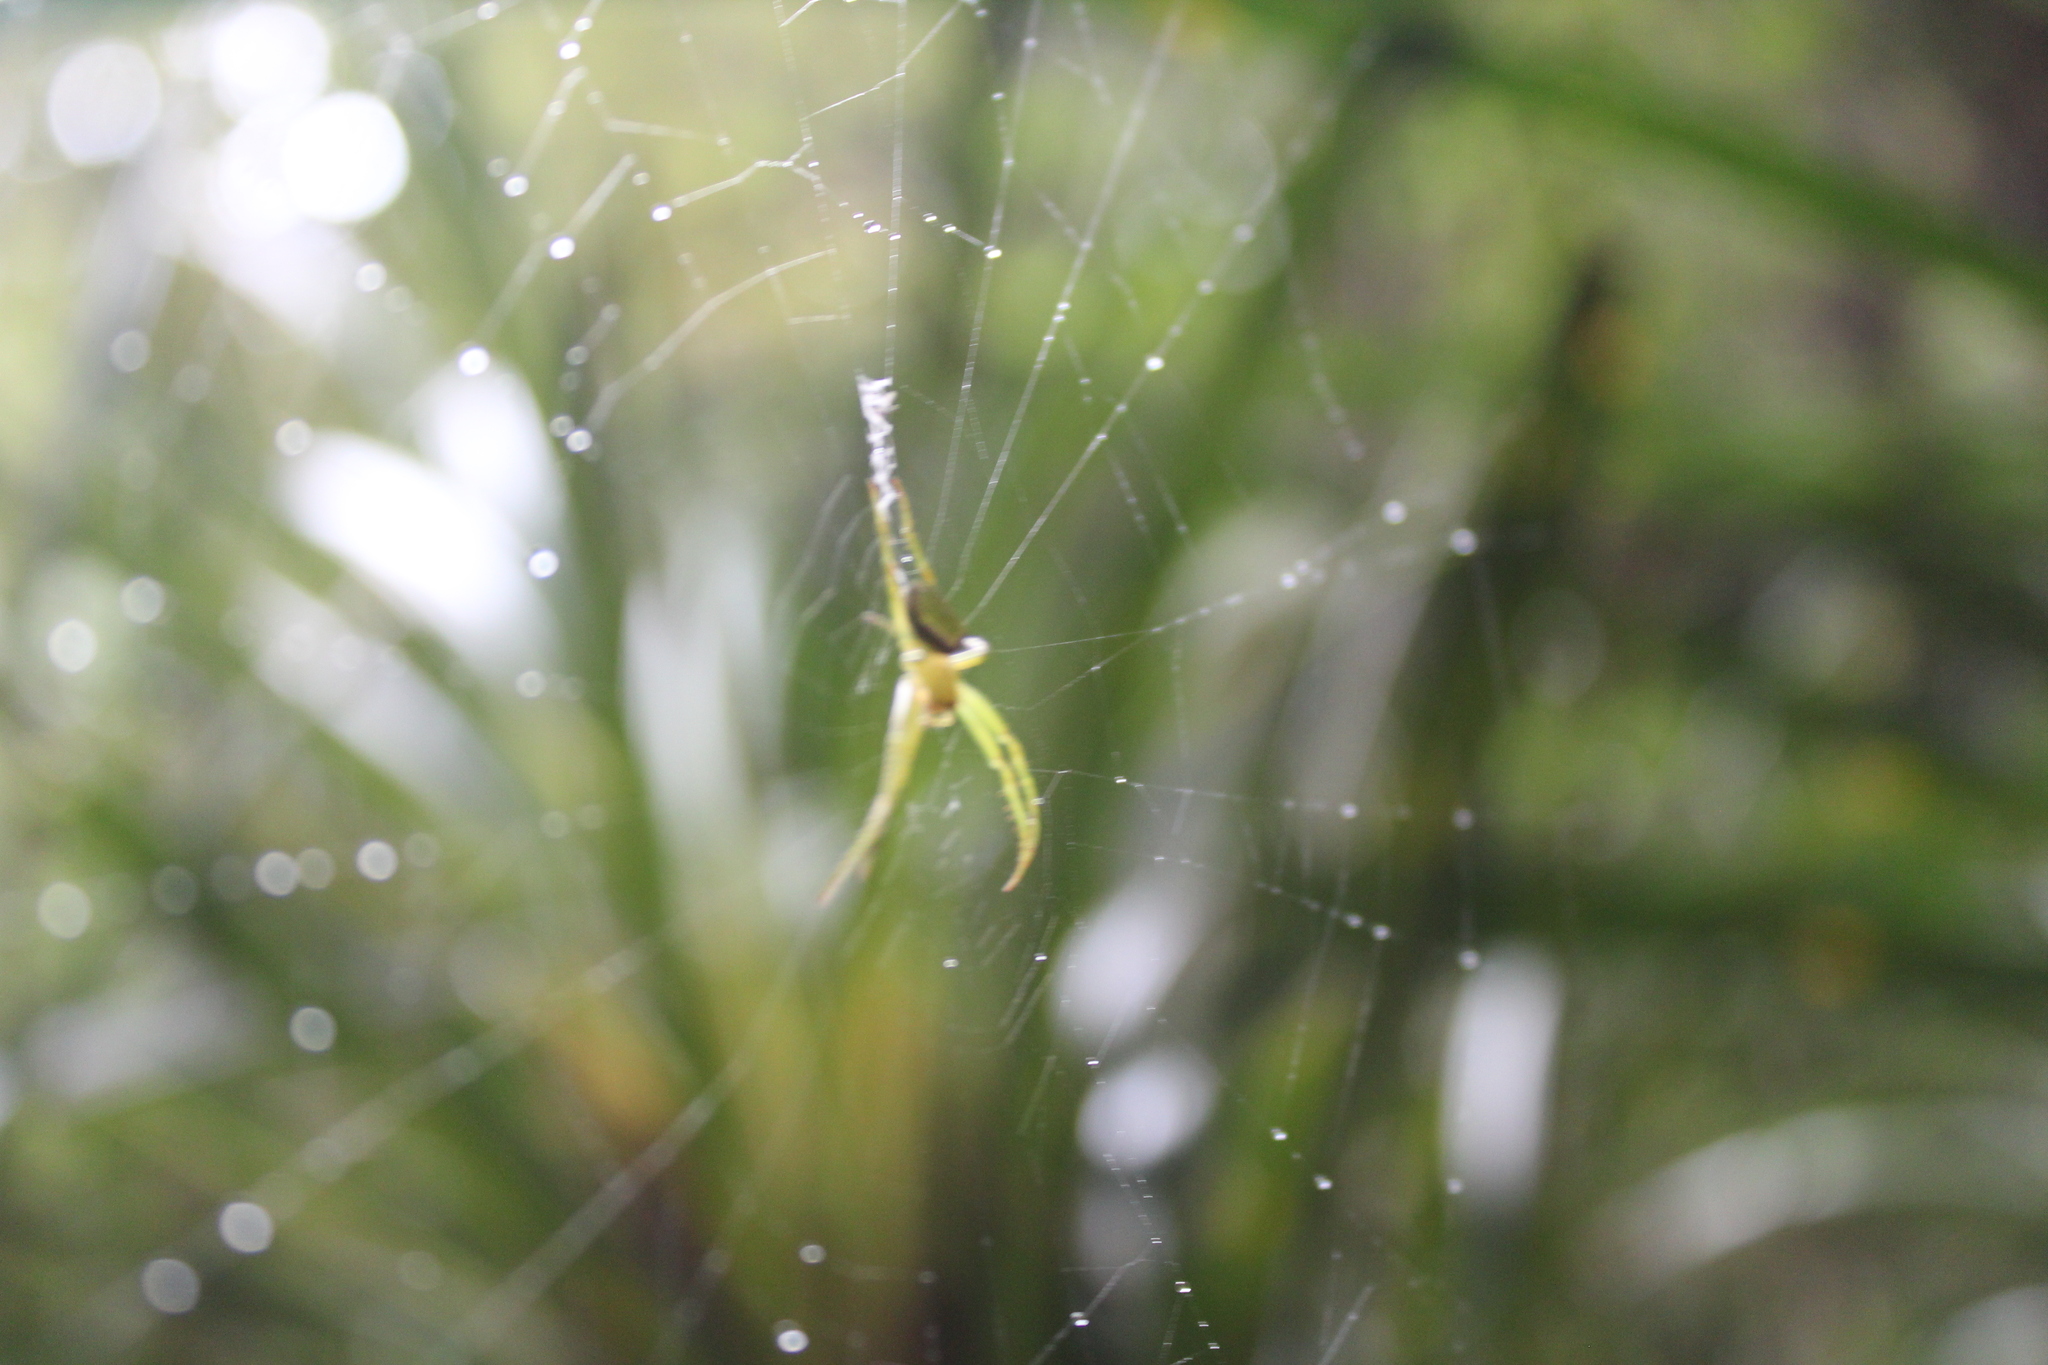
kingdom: Animalia
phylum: Arthropoda
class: Arachnida
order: Araneae
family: Araneidae
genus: Colaranea
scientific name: Colaranea viriditas
